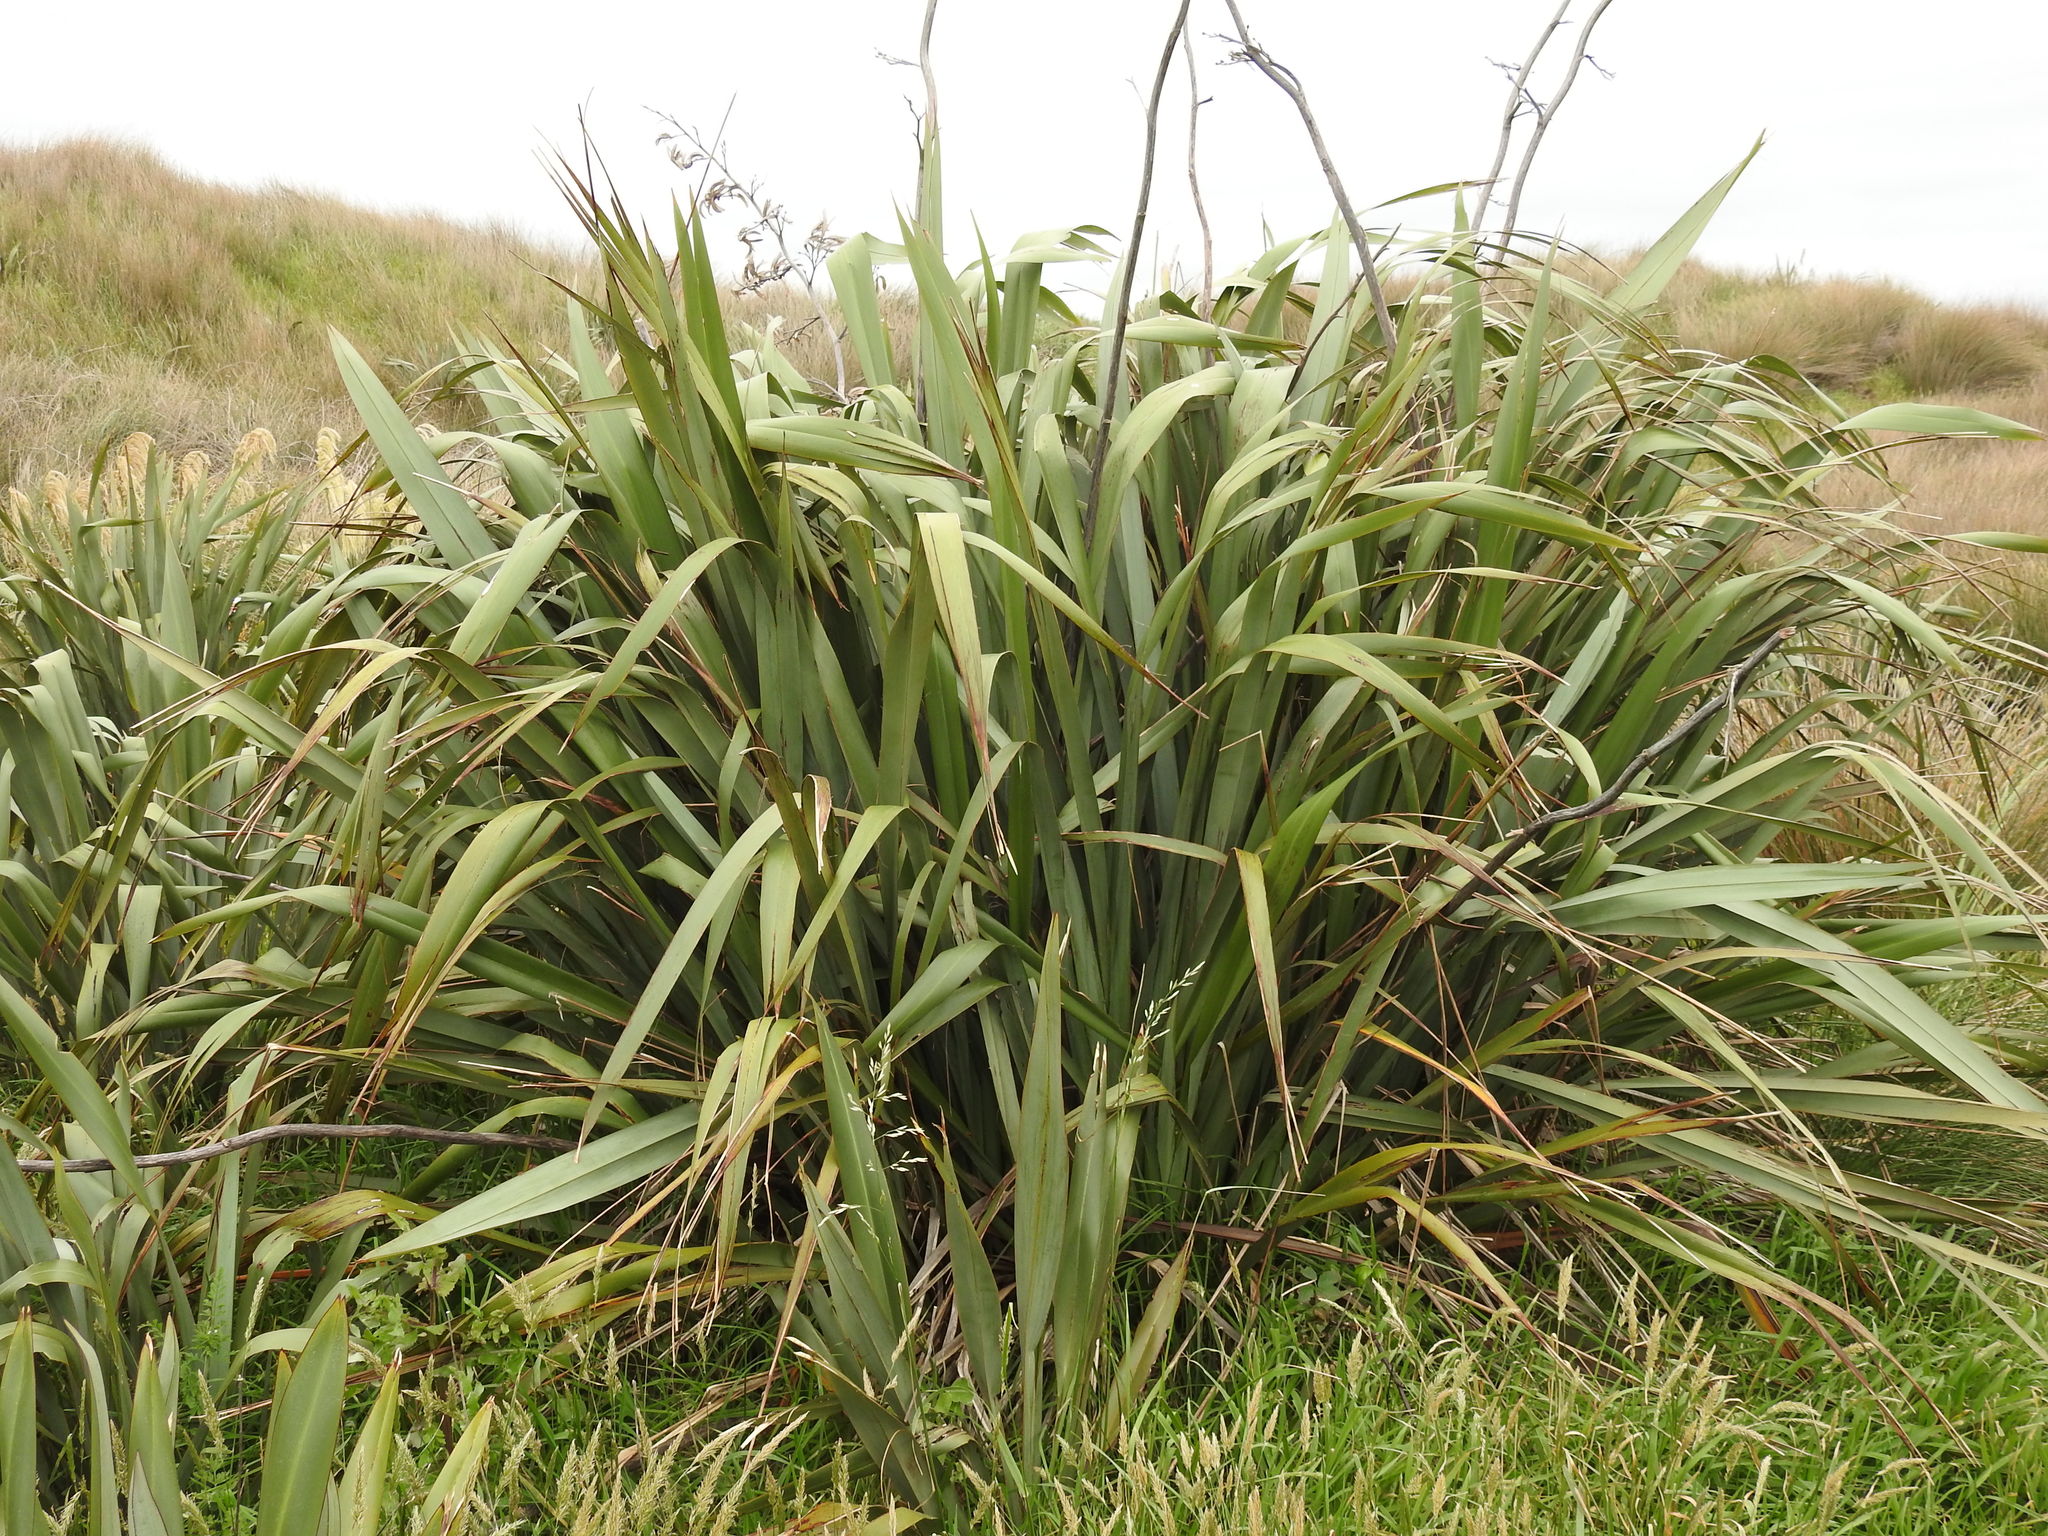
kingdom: Plantae
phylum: Tracheophyta
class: Liliopsida
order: Asparagales
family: Asphodelaceae
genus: Phormium
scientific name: Phormium tenax
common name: New zealand flax
